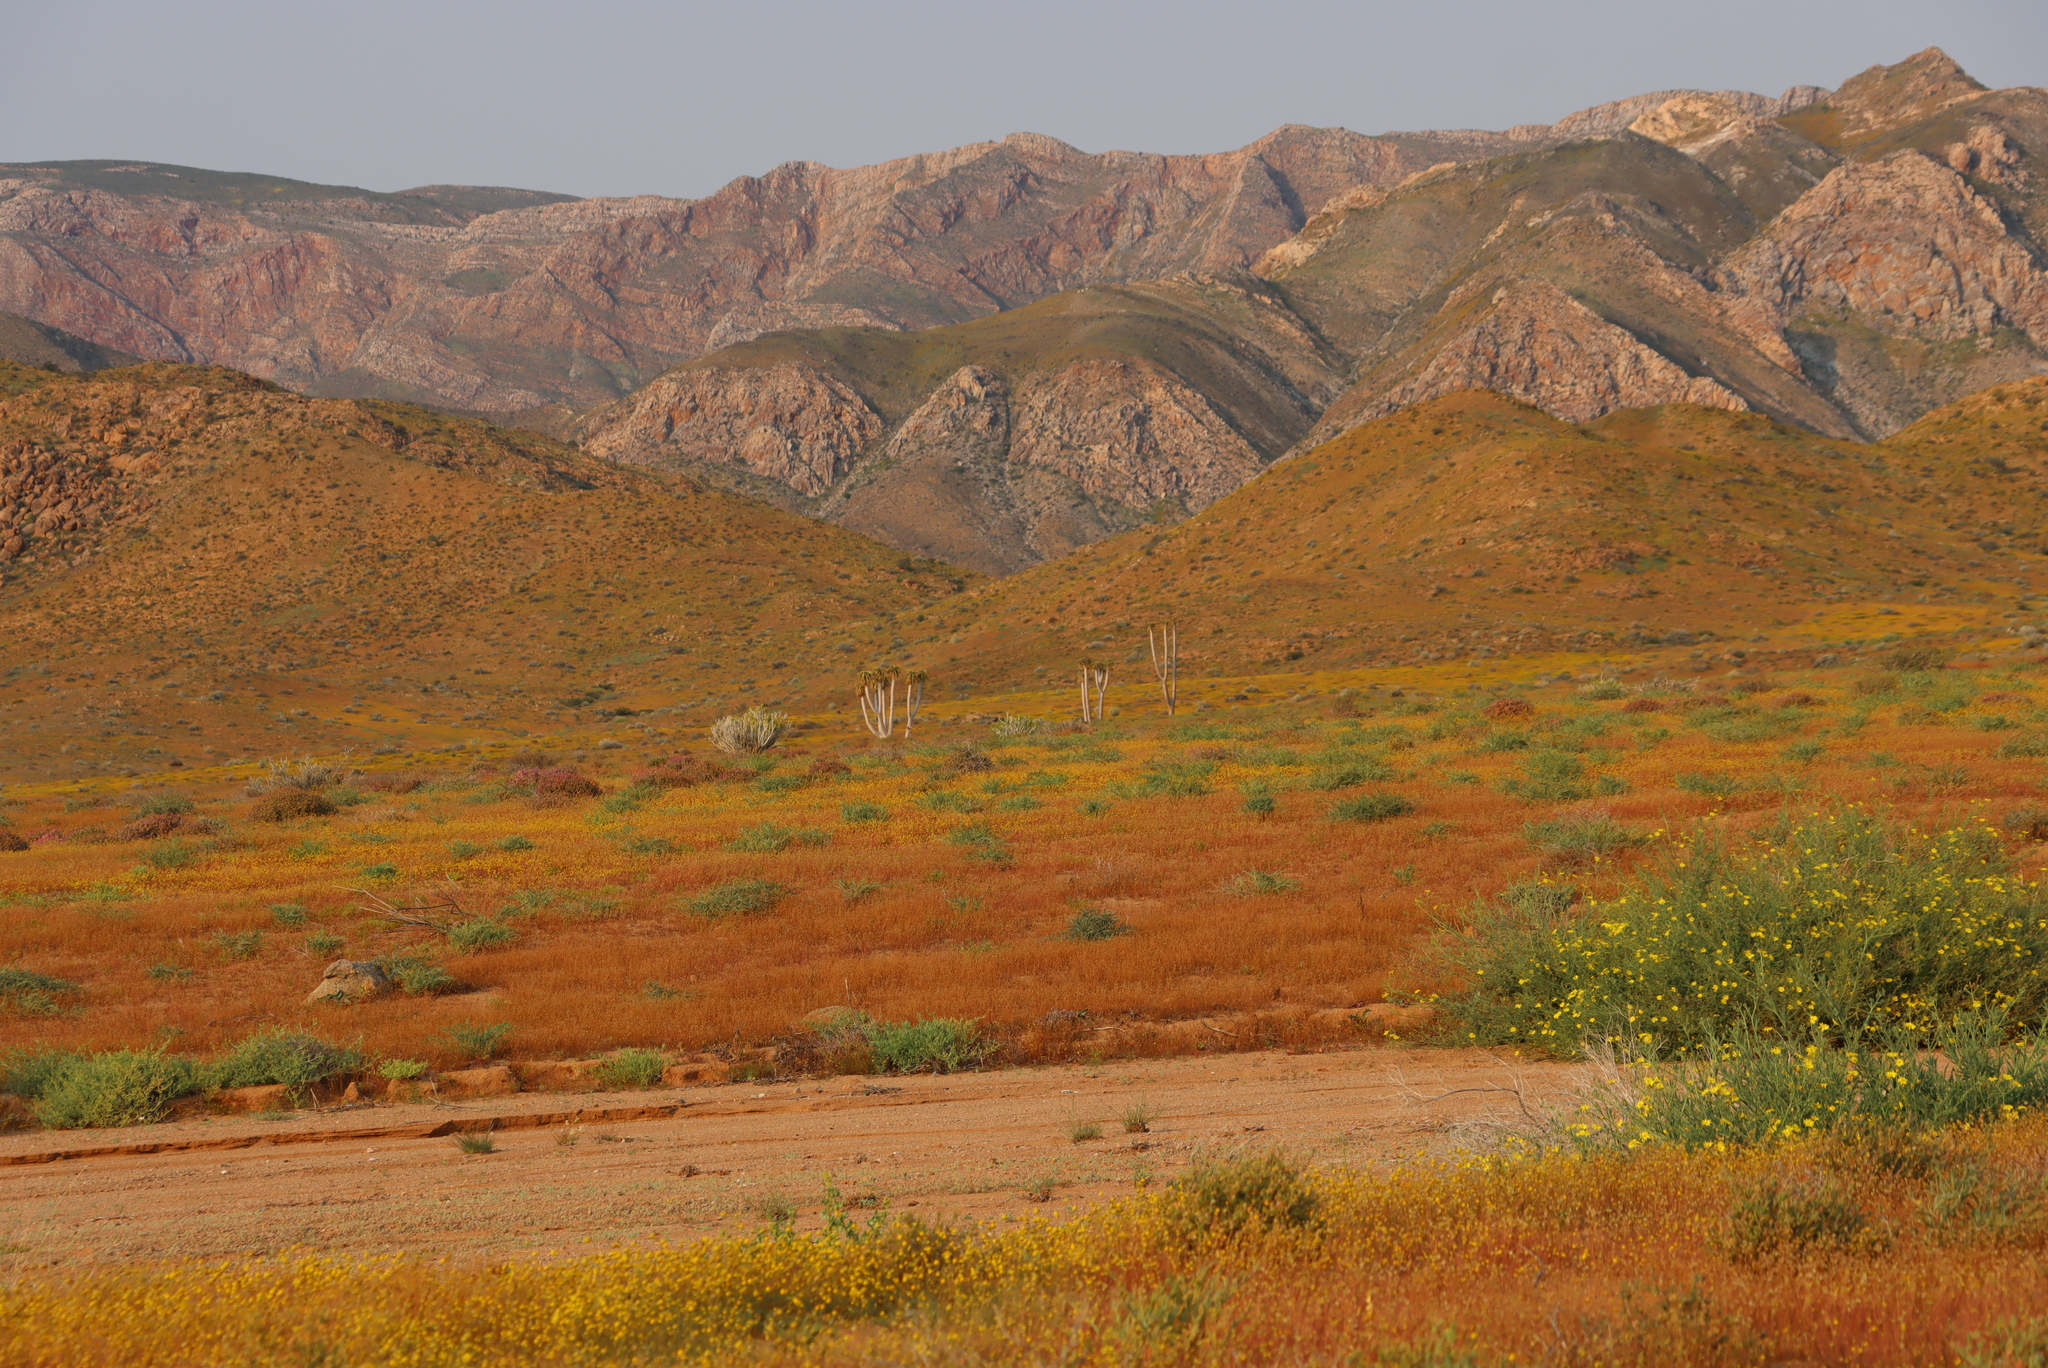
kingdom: Plantae
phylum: Tracheophyta
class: Liliopsida
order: Asparagales
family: Asphodelaceae
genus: Aloidendron
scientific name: Aloidendron pillansii
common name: Bastard quiver tree
